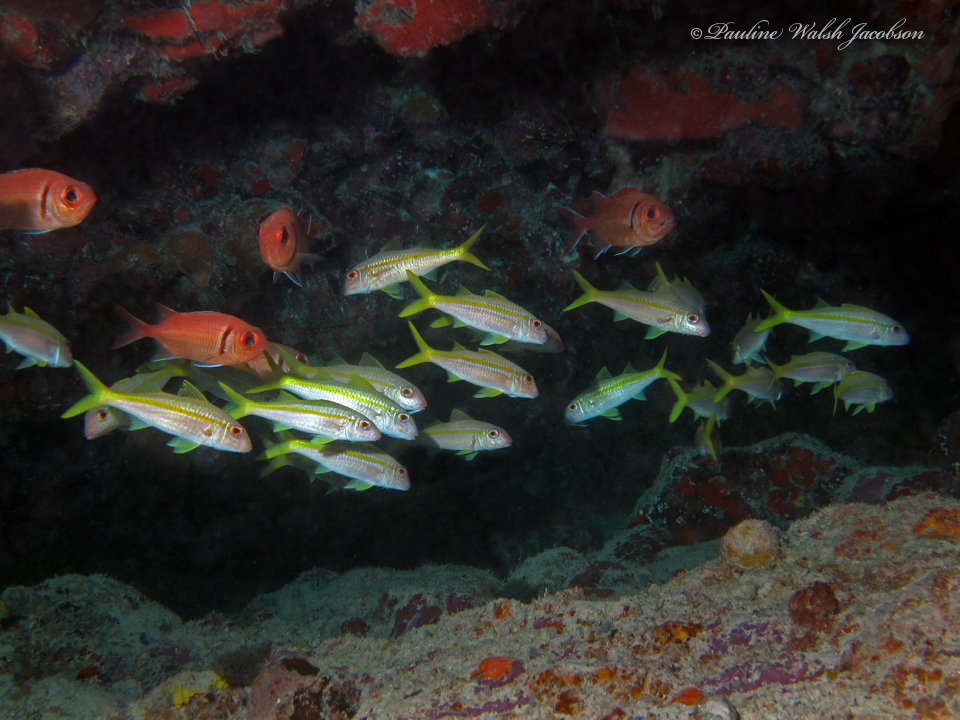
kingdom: Animalia
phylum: Chordata
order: Perciformes
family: Mullidae
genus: Mulloidichthys
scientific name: Mulloidichthys martinicus
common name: Yellow goatfish
